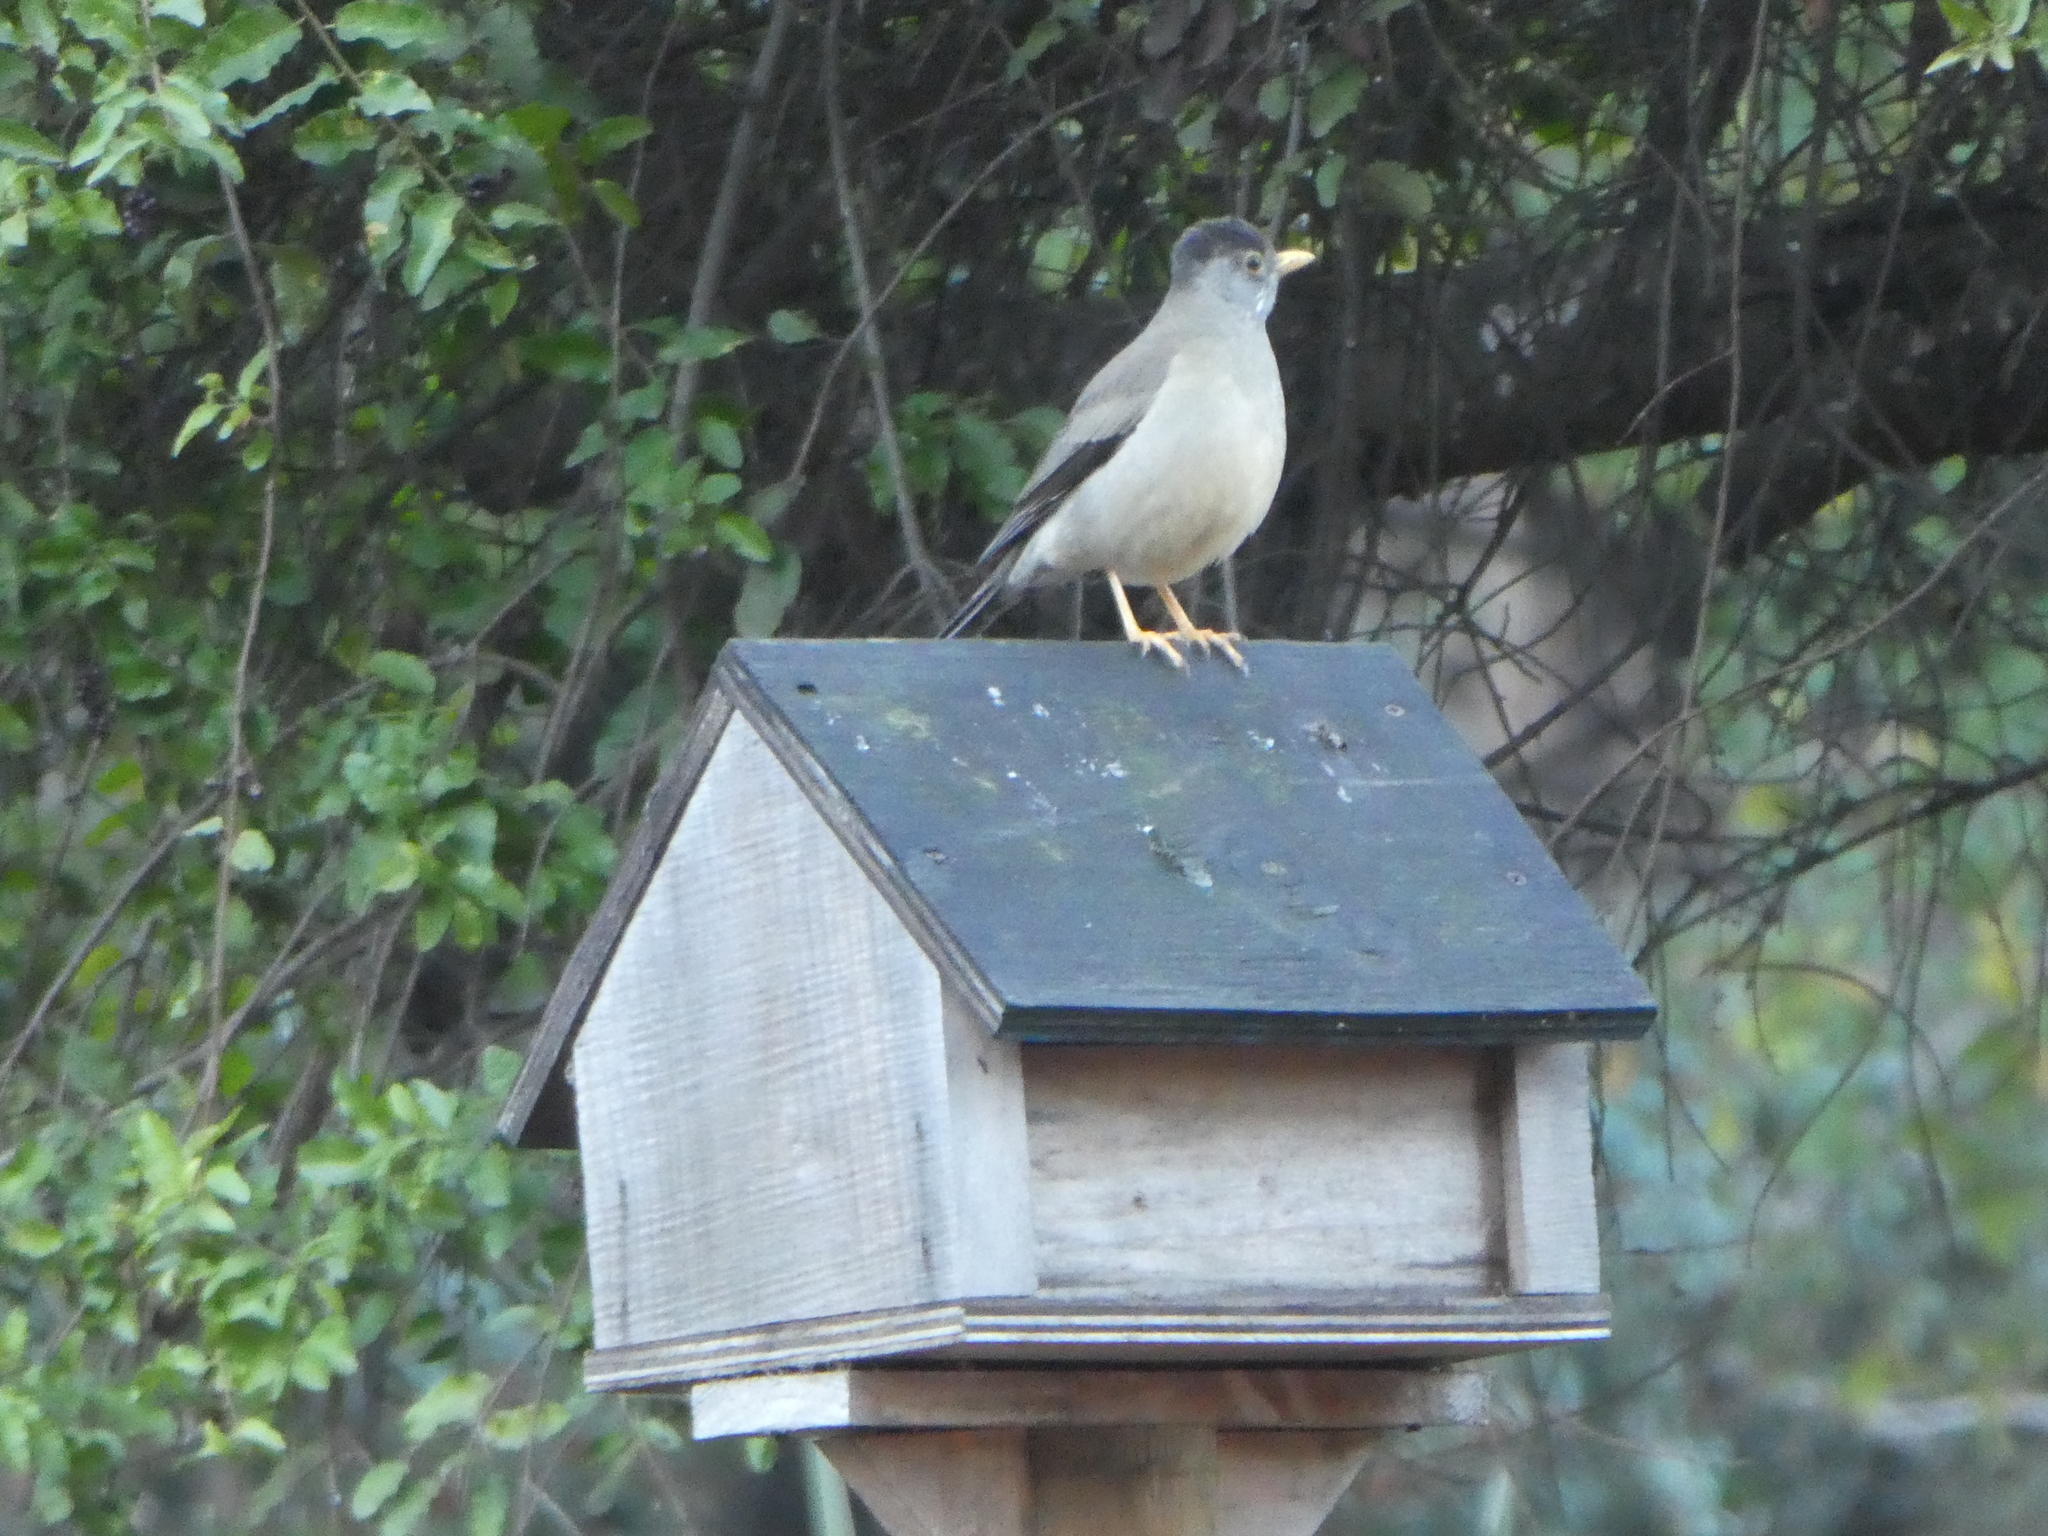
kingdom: Animalia
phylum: Chordata
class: Aves
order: Passeriformes
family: Turdidae
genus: Turdus
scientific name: Turdus falcklandii
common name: Austral thrush
